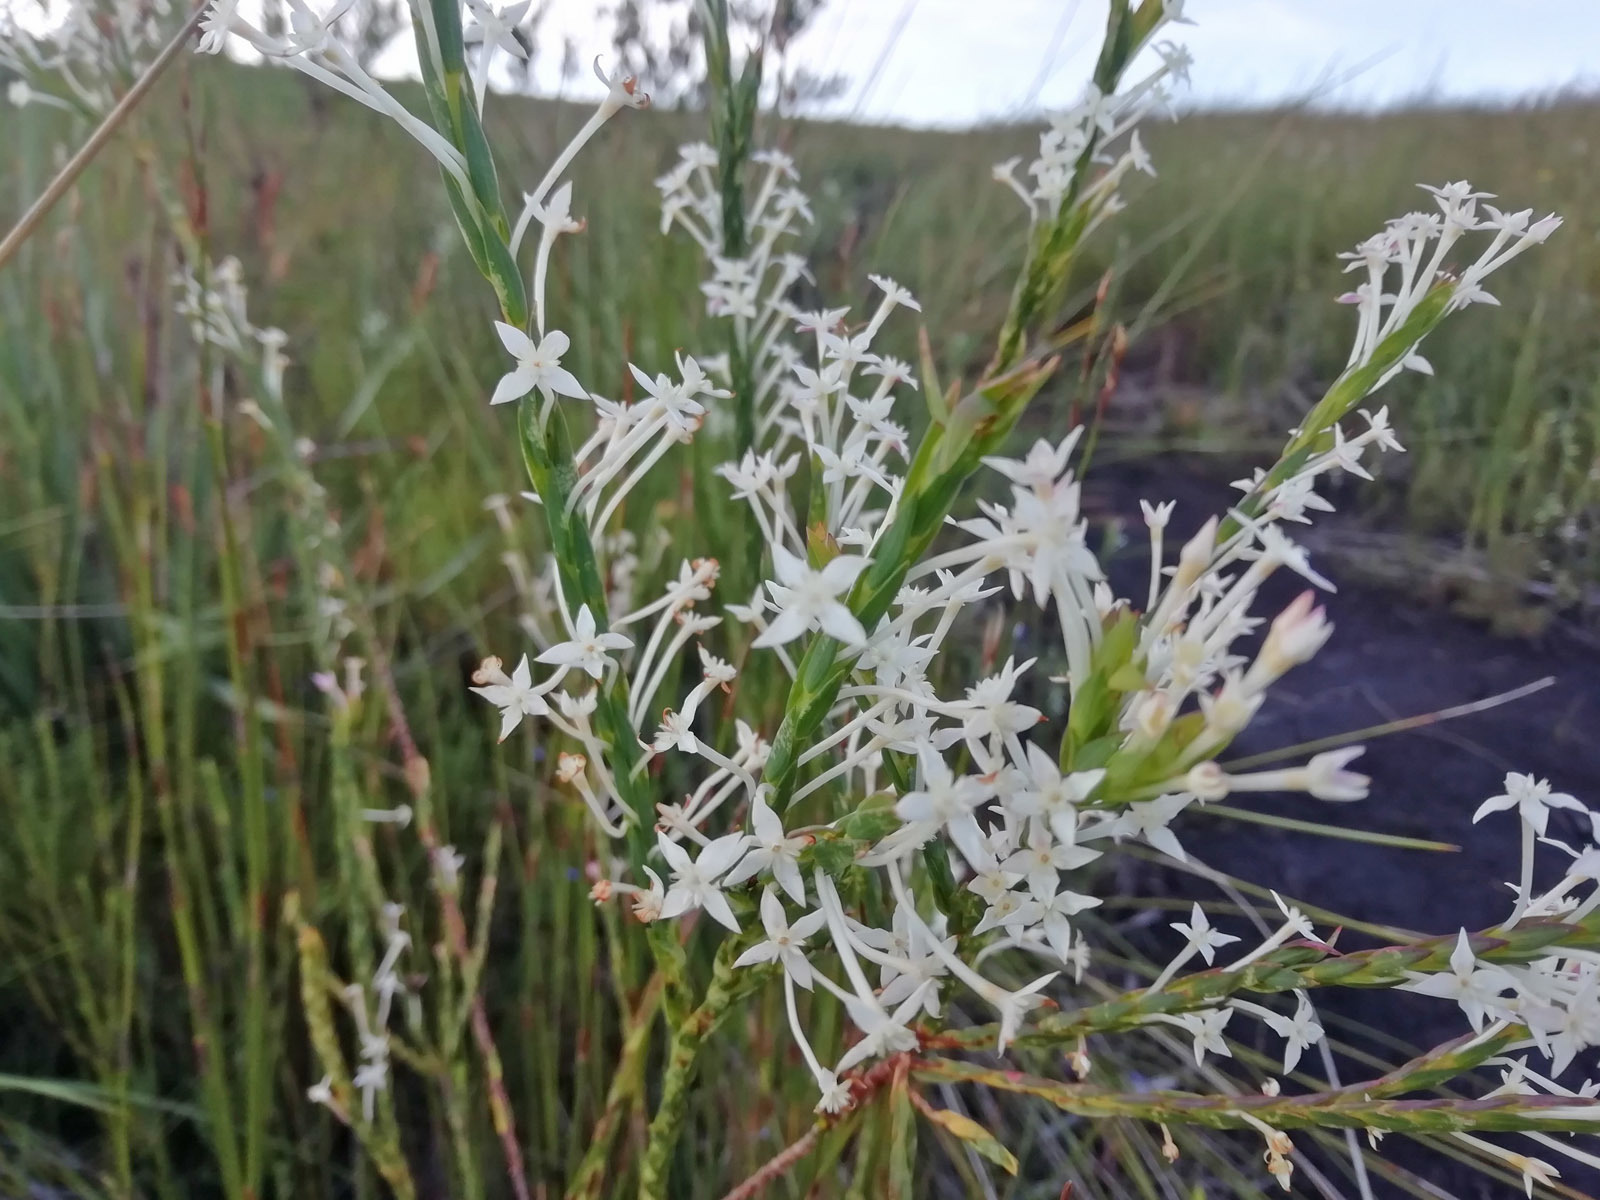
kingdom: Plantae
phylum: Tracheophyta
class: Magnoliopsida
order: Malvales
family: Thymelaeaceae
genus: Struthiola
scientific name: Struthiola myrsinites
